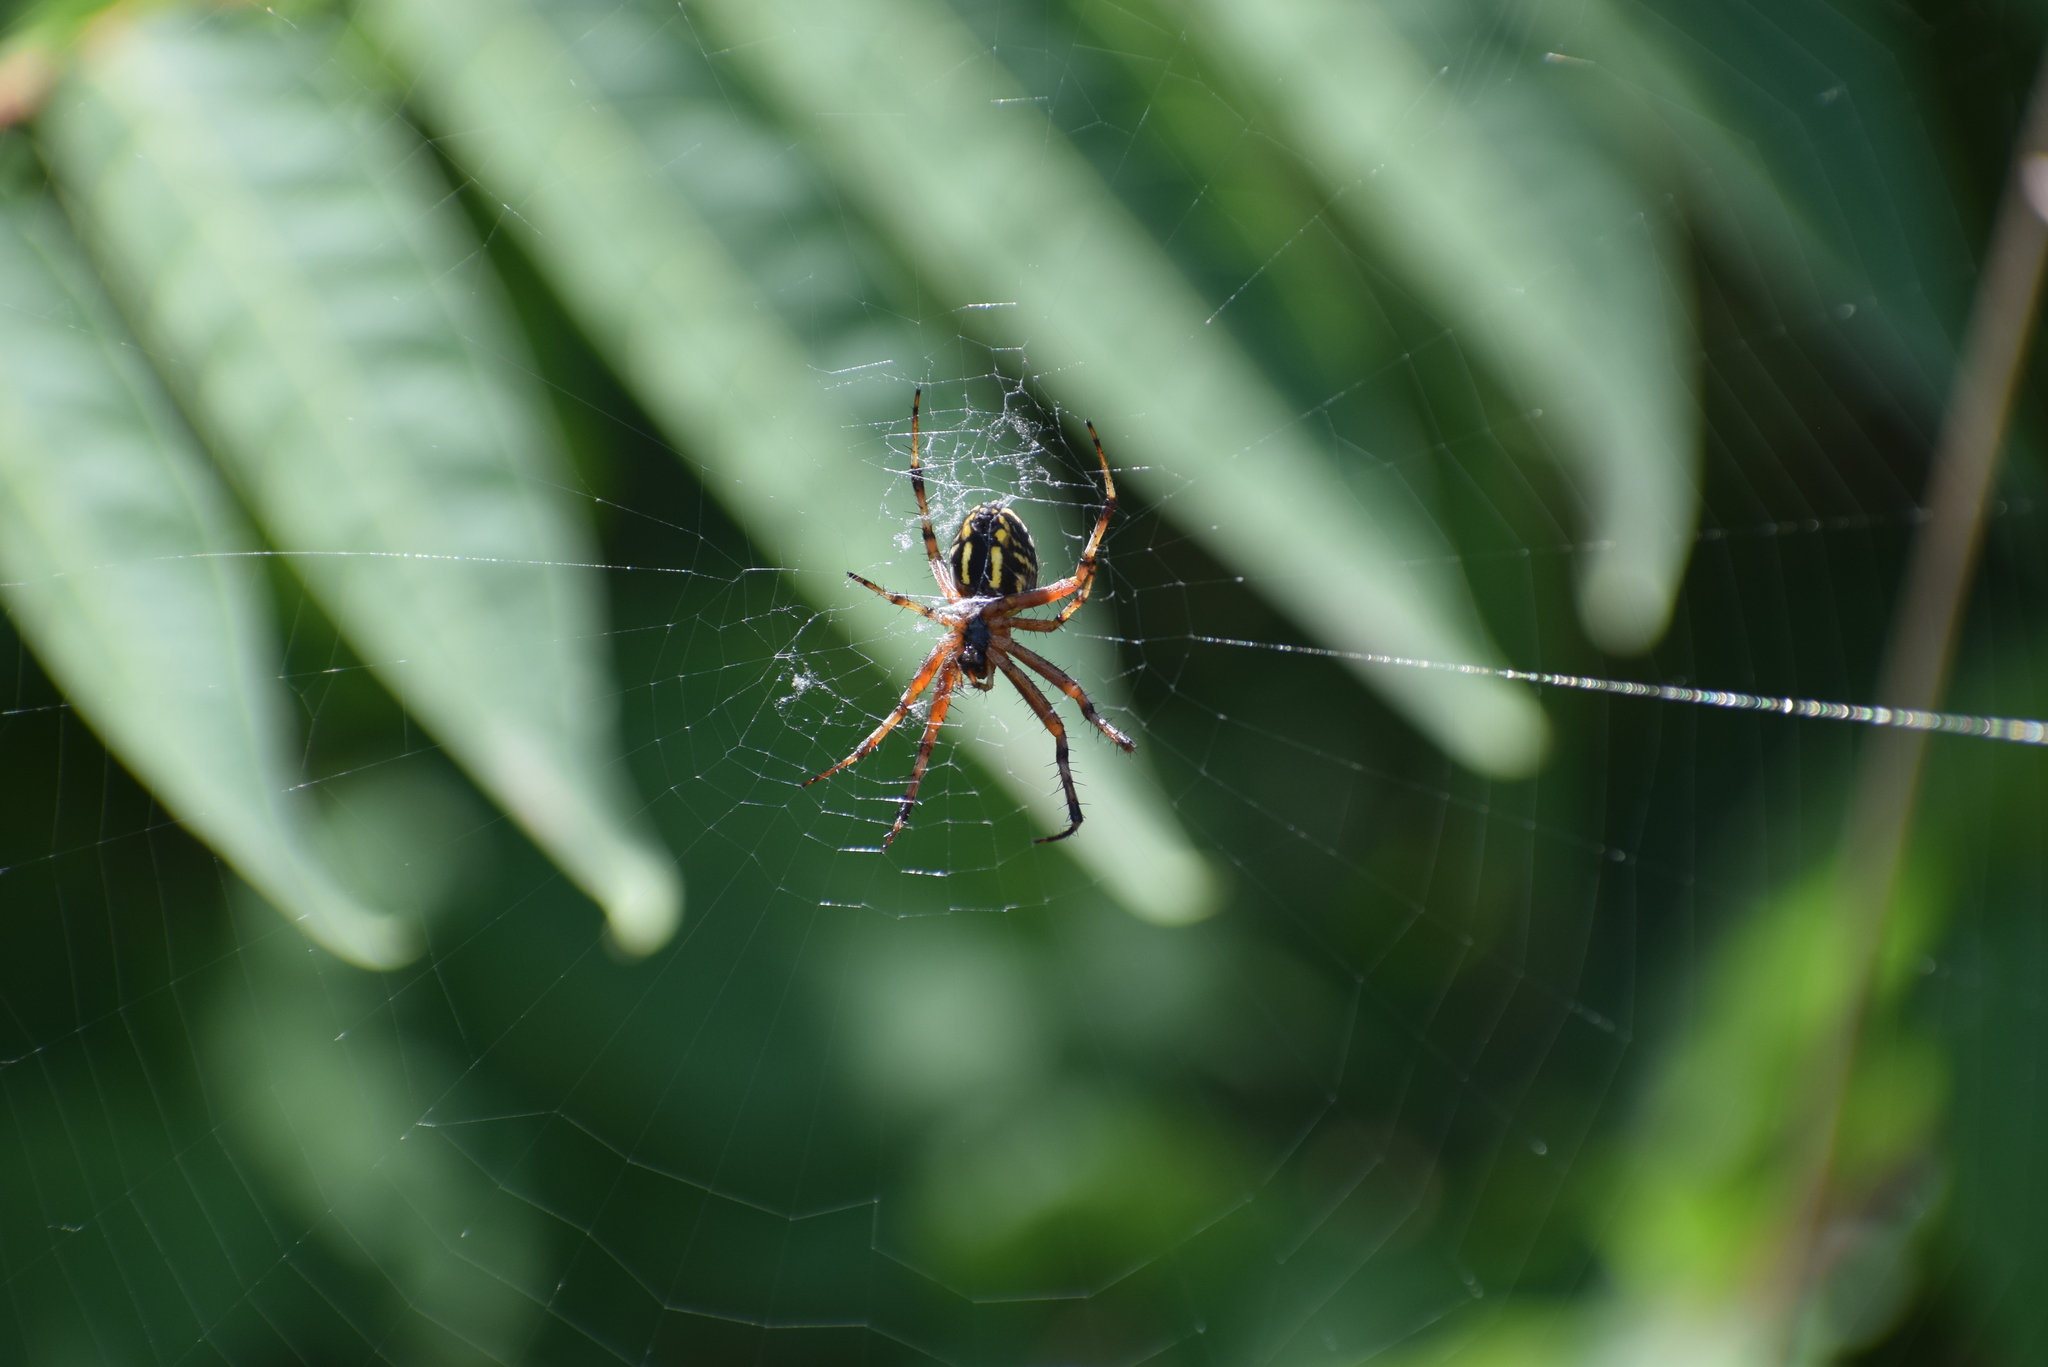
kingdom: Animalia
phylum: Arthropoda
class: Arachnida
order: Araneae
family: Araneidae
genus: Neoscona
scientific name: Neoscona adianta
